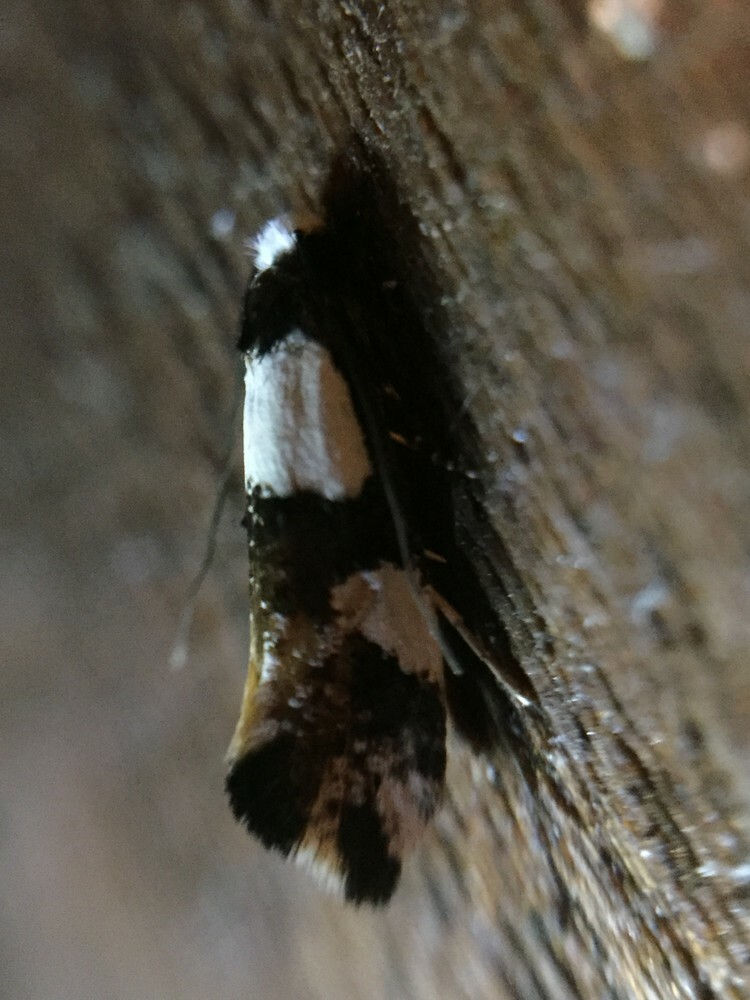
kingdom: Animalia
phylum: Arthropoda
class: Insecta
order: Lepidoptera
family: Tineidae
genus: Monopis
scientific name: Monopis icterogastra
